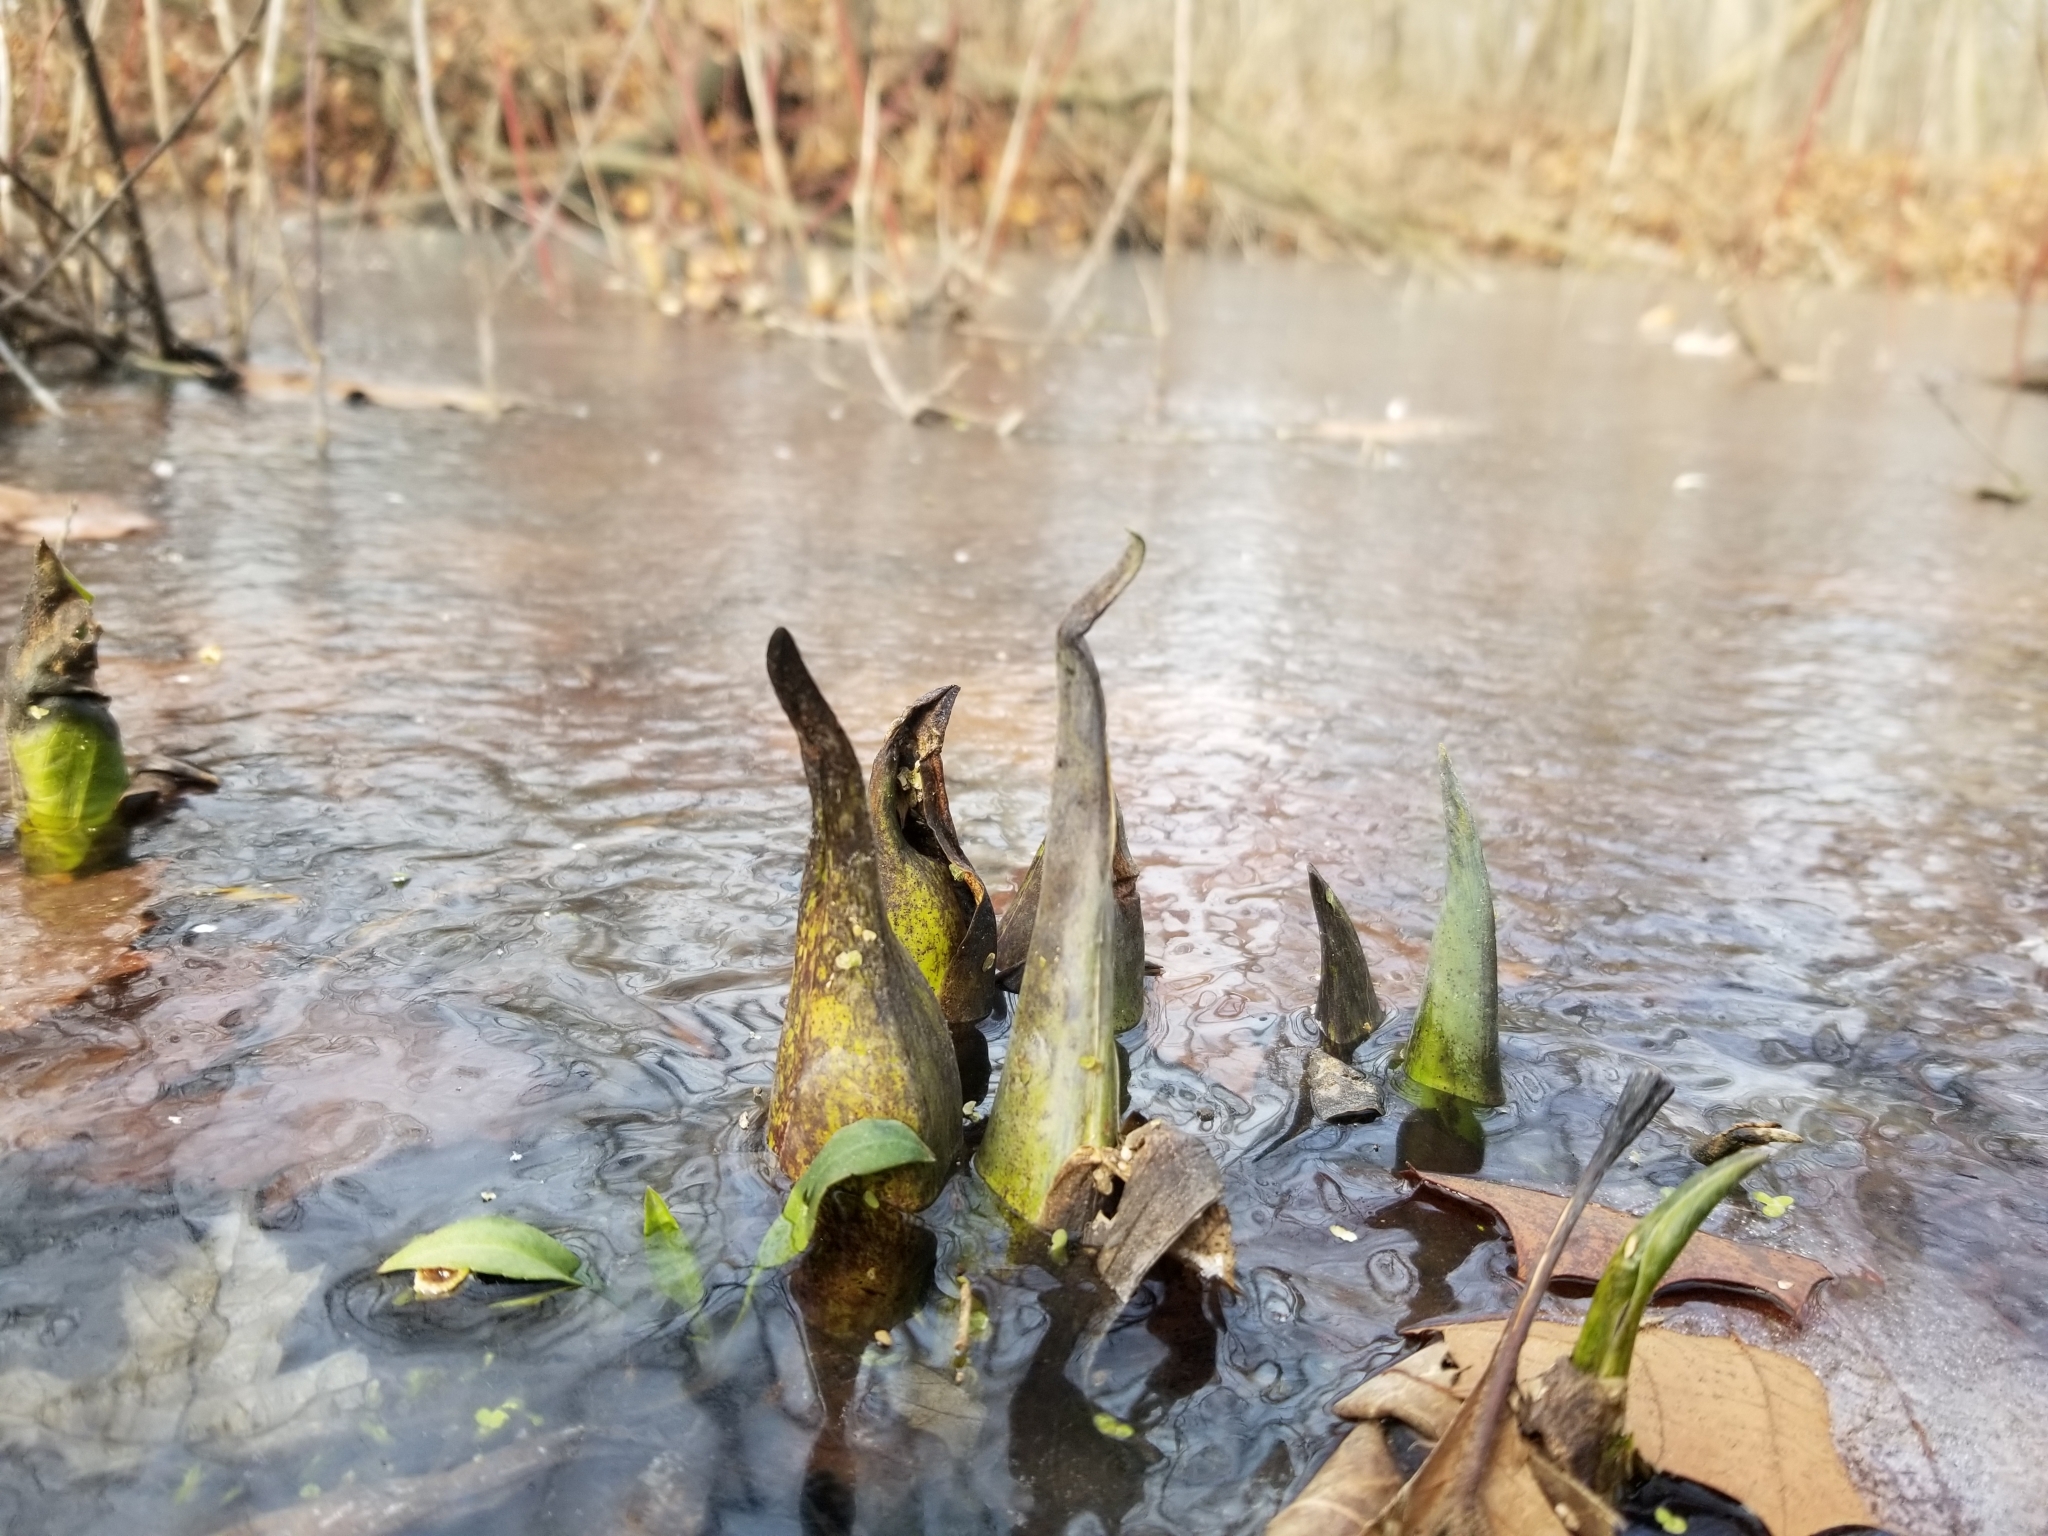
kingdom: Plantae
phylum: Tracheophyta
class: Liliopsida
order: Alismatales
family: Araceae
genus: Symplocarpus
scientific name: Symplocarpus foetidus
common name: Eastern skunk cabbage
